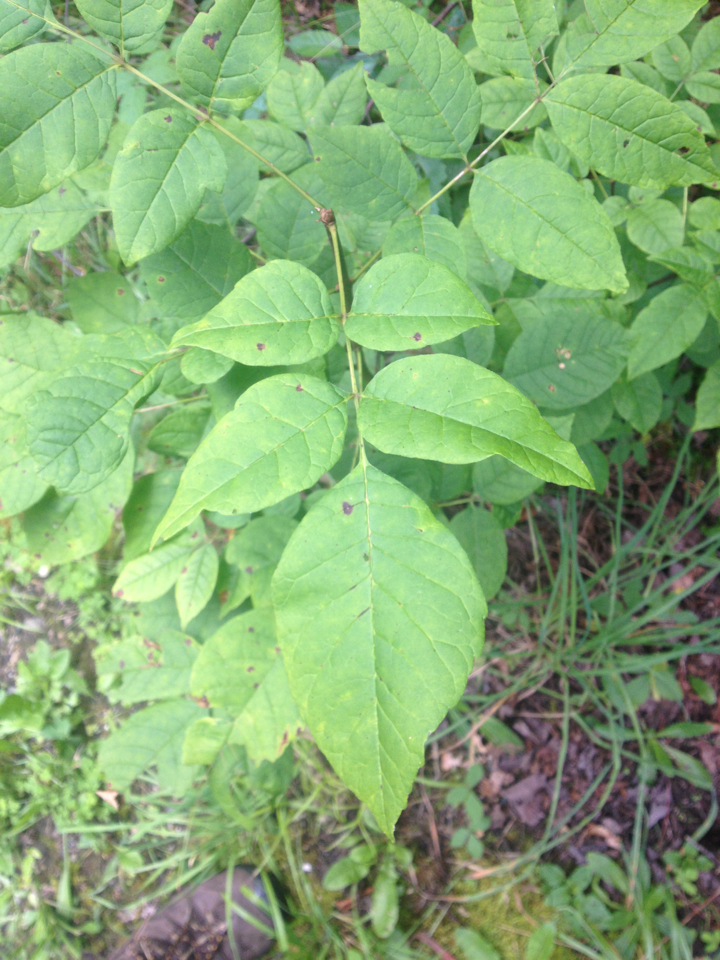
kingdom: Plantae
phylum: Tracheophyta
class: Magnoliopsida
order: Lamiales
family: Oleaceae
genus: Fraxinus
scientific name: Fraxinus americana
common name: White ash
